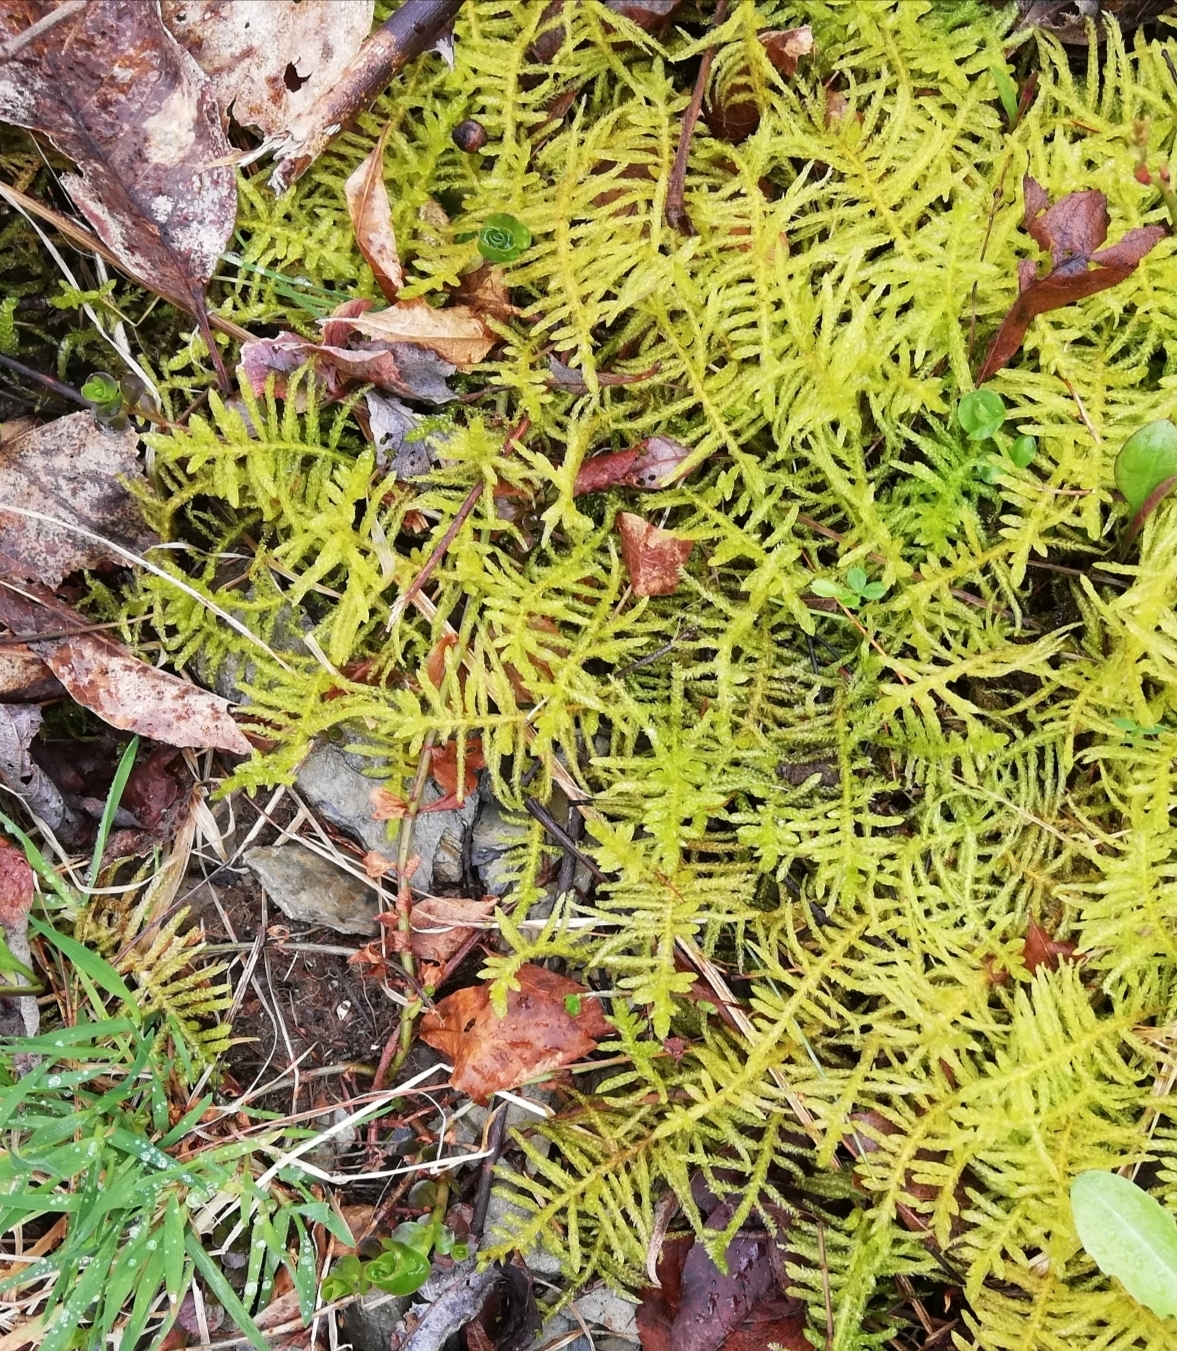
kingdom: Plantae
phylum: Bryophyta
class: Bryopsida
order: Hypnales
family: Brachytheciaceae
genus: Pseudoscleropodium
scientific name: Pseudoscleropodium purum
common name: Neat feather-moss
